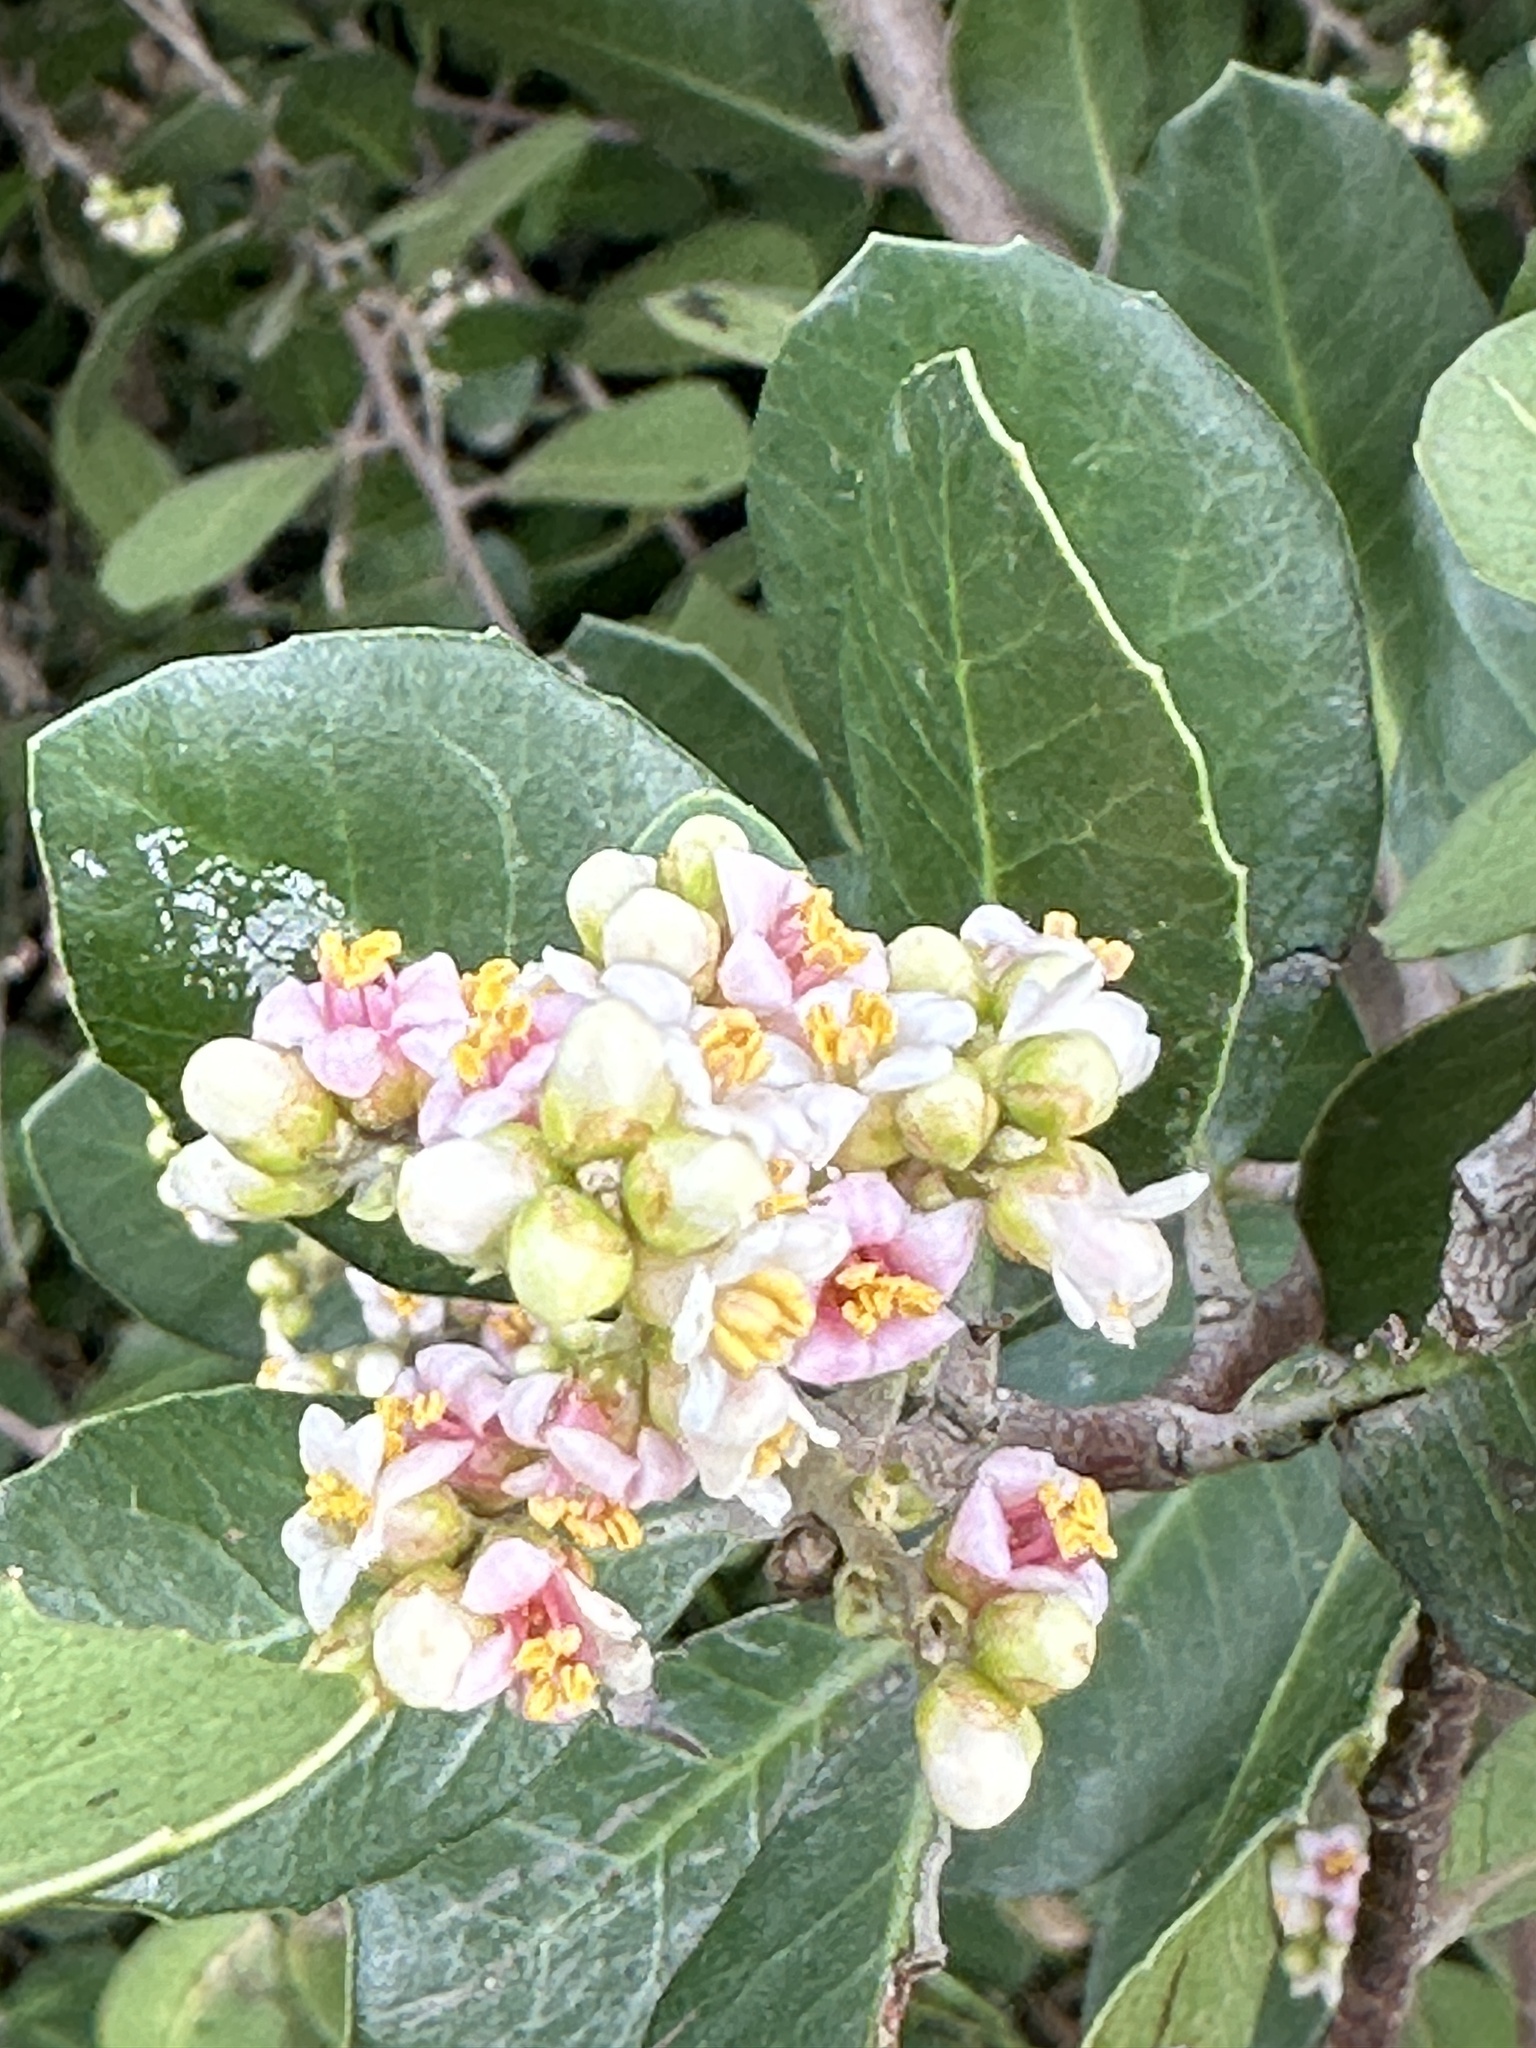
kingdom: Plantae
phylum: Tracheophyta
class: Magnoliopsida
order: Sapindales
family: Anacardiaceae
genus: Rhus
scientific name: Rhus integrifolia
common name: Lemonade sumac
